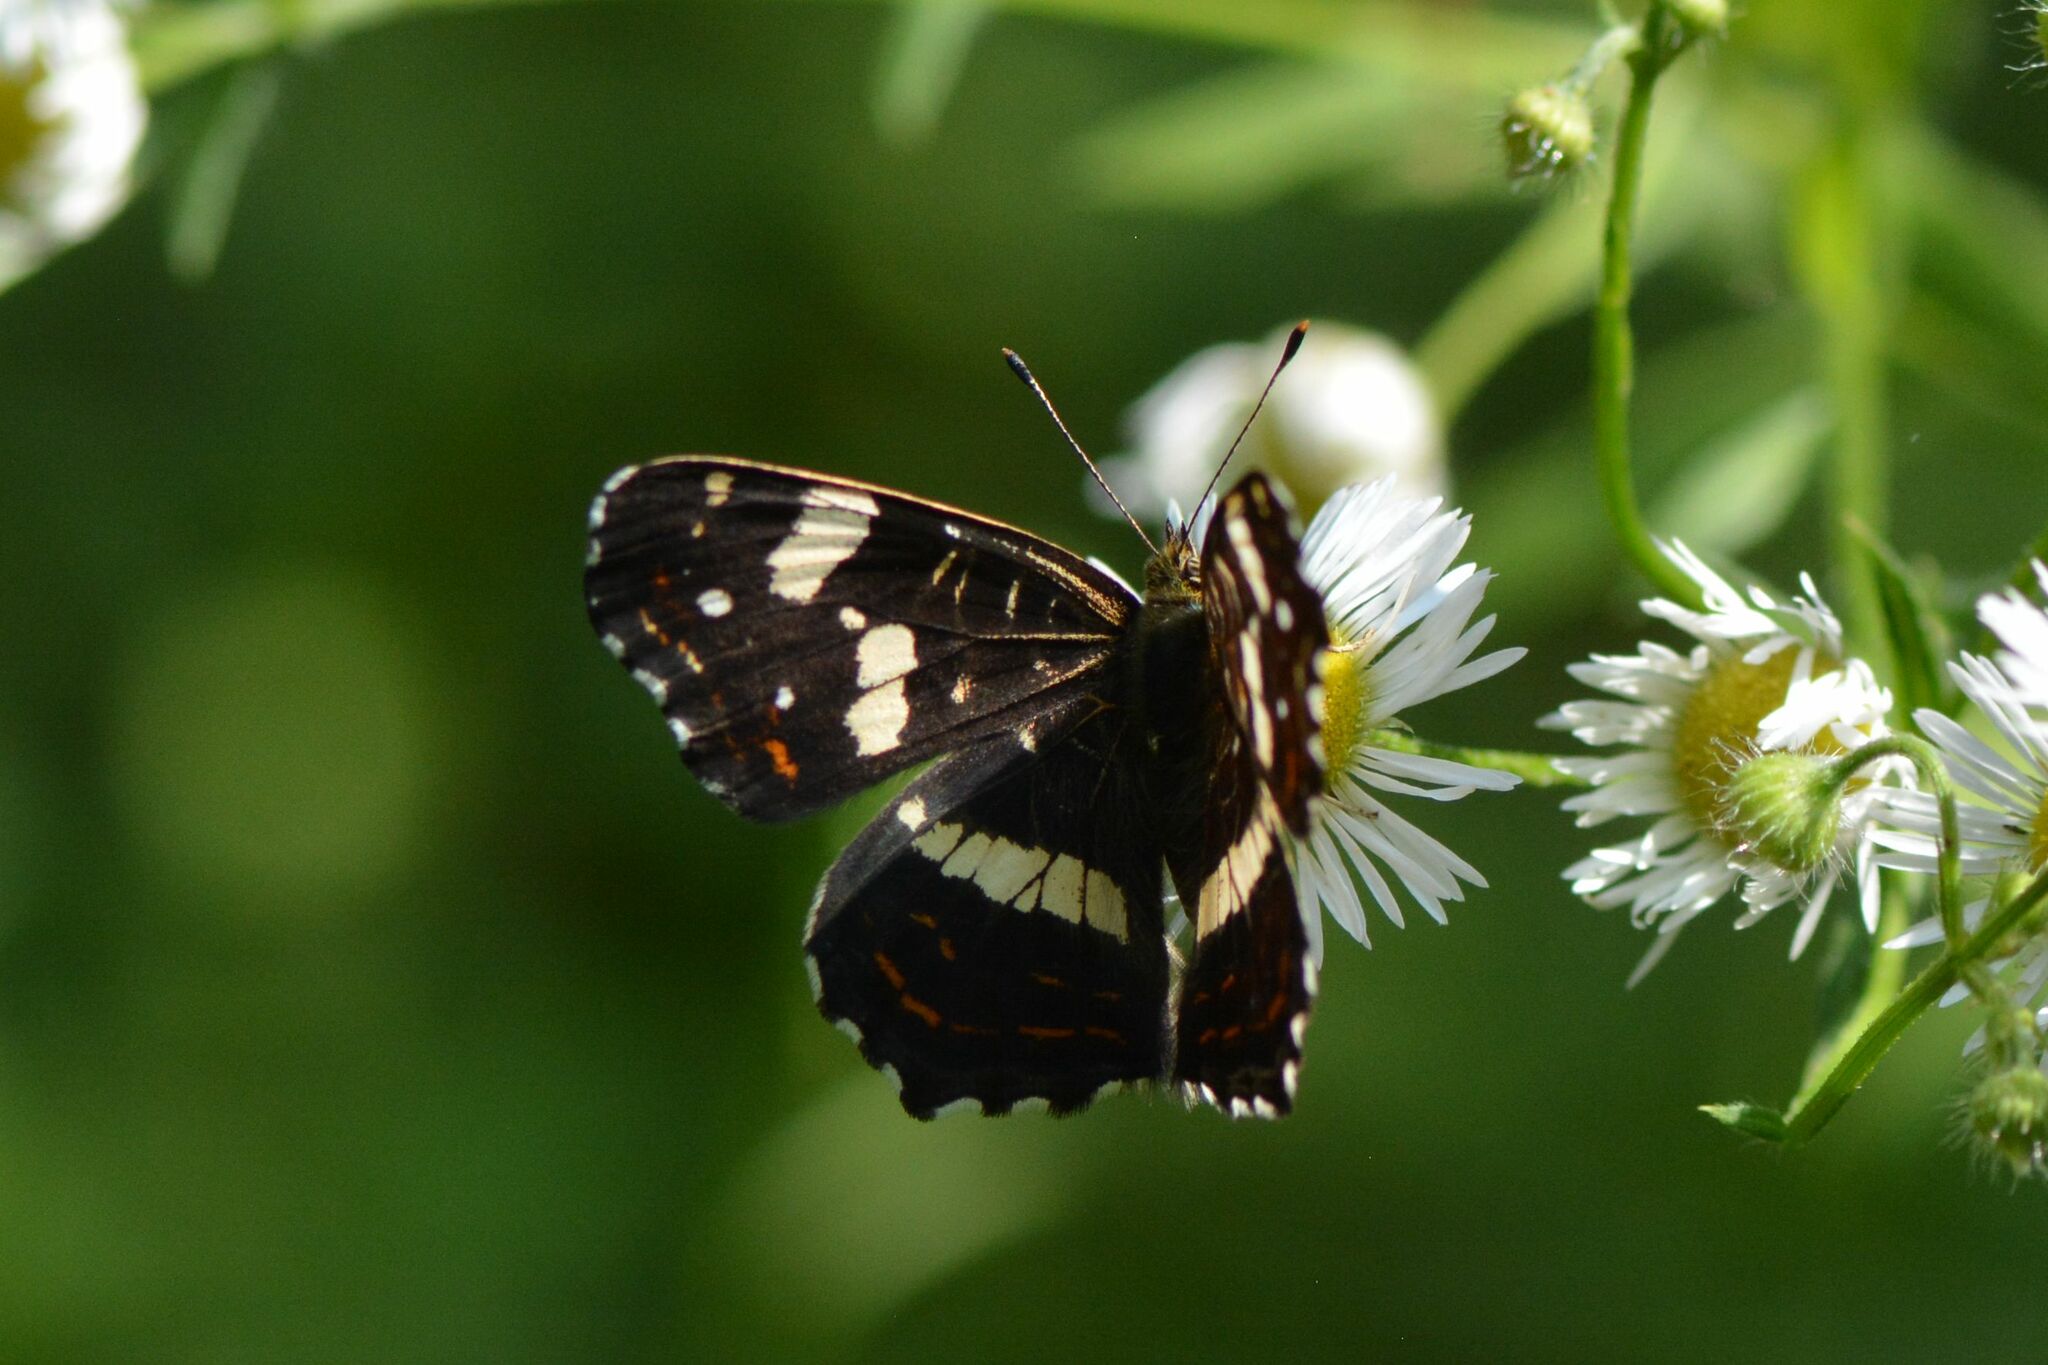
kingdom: Animalia
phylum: Arthropoda
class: Insecta
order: Lepidoptera
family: Nymphalidae
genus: Araschnia
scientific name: Araschnia levana
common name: Map butterfly
